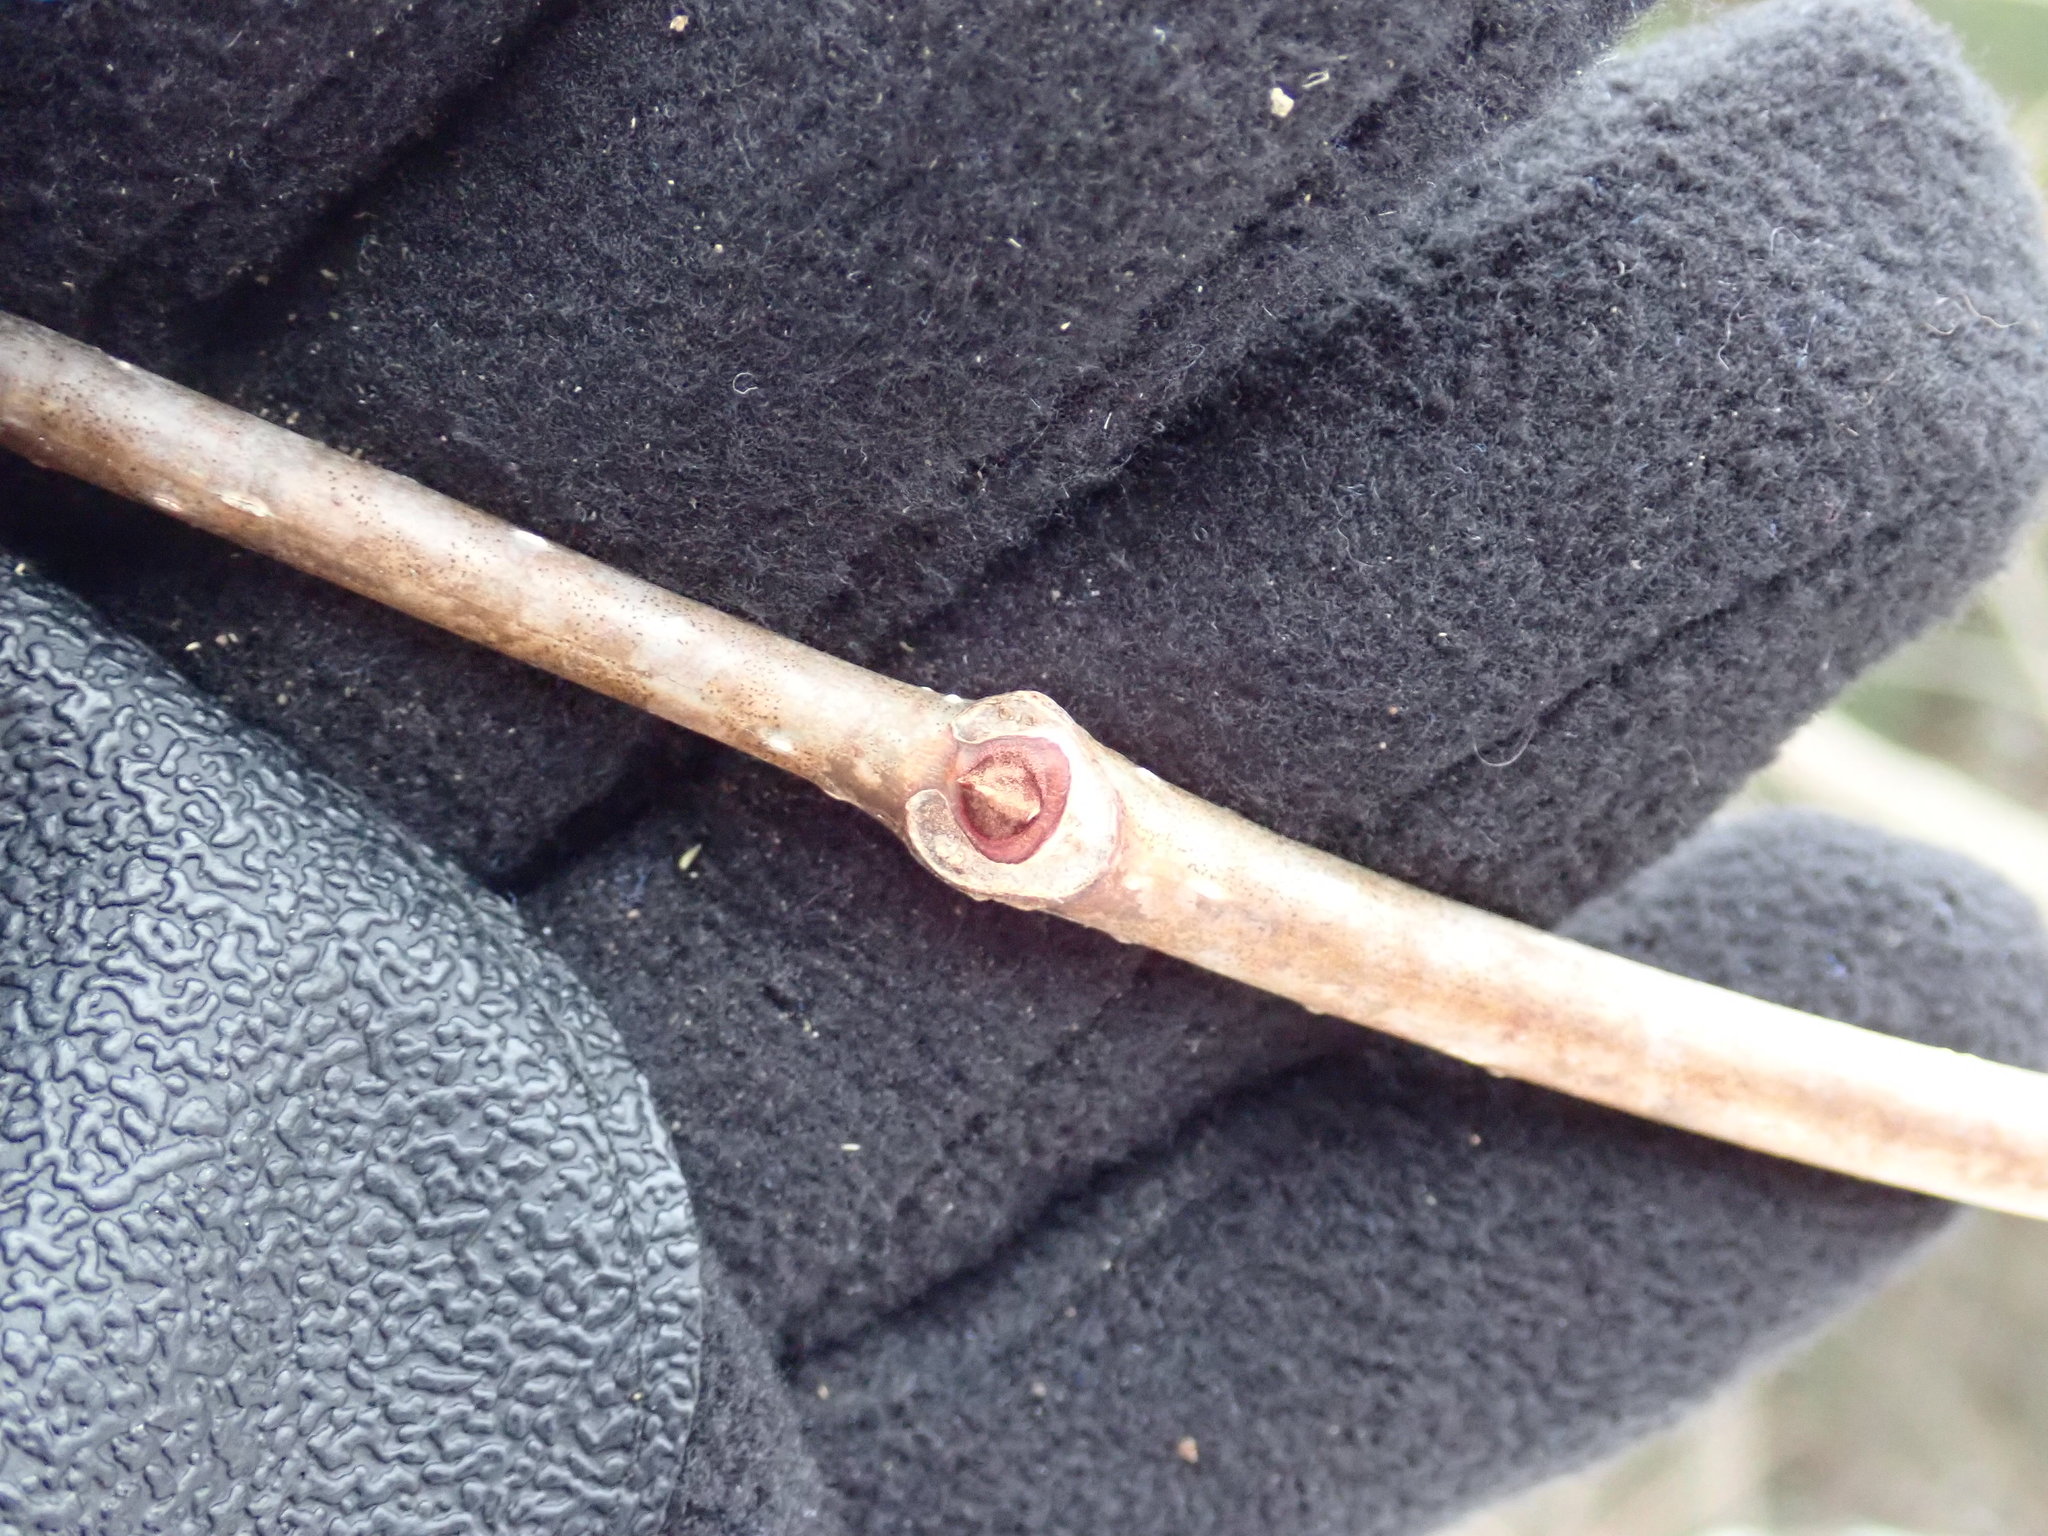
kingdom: Plantae
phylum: Tracheophyta
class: Magnoliopsida
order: Sapindales
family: Rutaceae
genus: Phellodendron
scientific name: Phellodendron amurense
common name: Amur corktree
